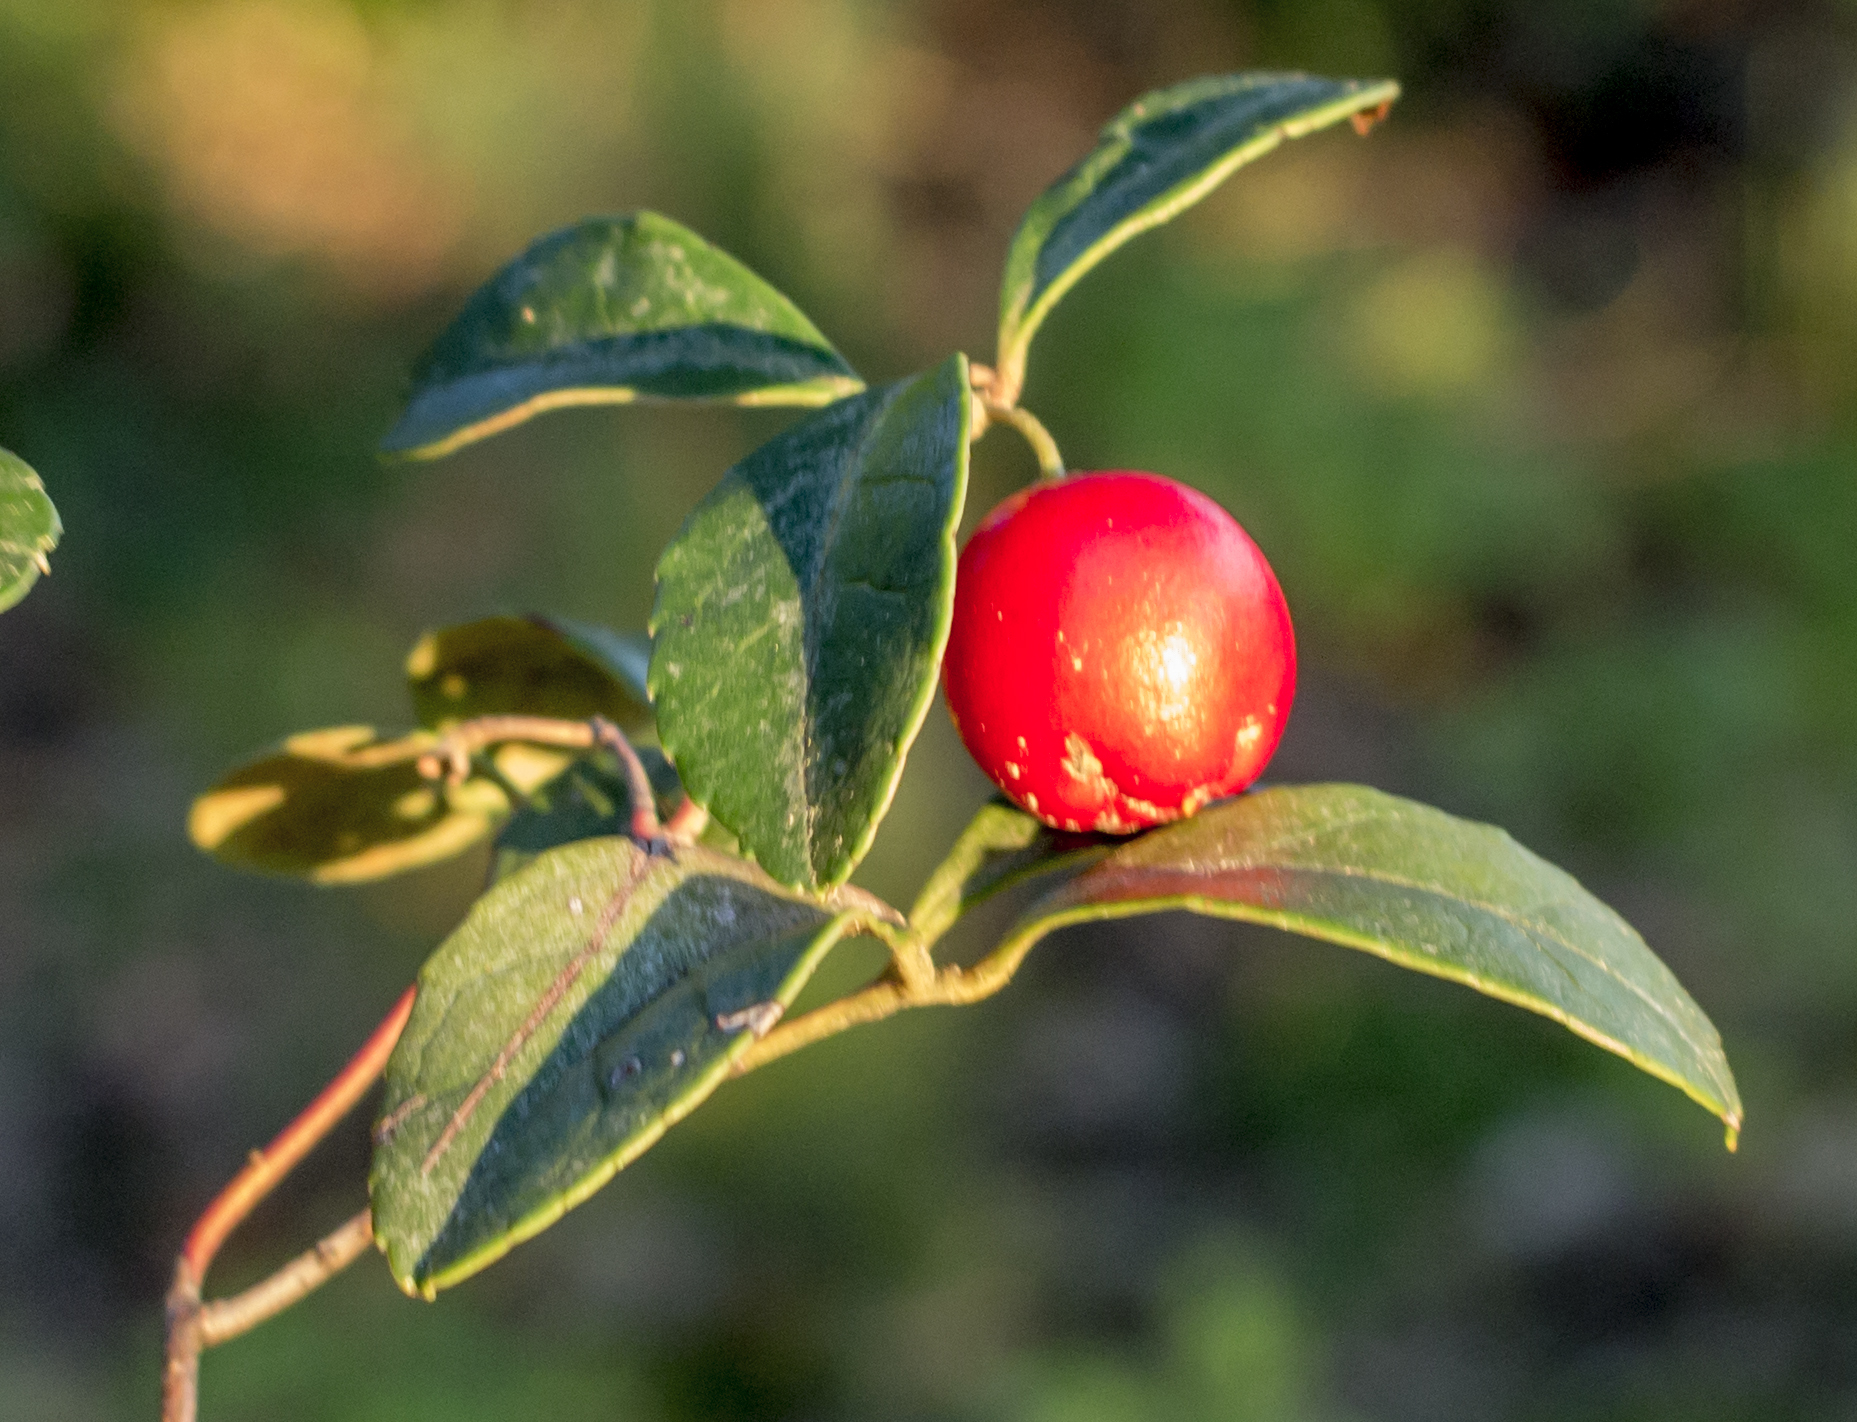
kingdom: Plantae
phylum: Tracheophyta
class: Magnoliopsida
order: Ericales
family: Ericaceae
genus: Gaultheria
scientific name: Gaultheria procumbens
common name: Checkerberry
